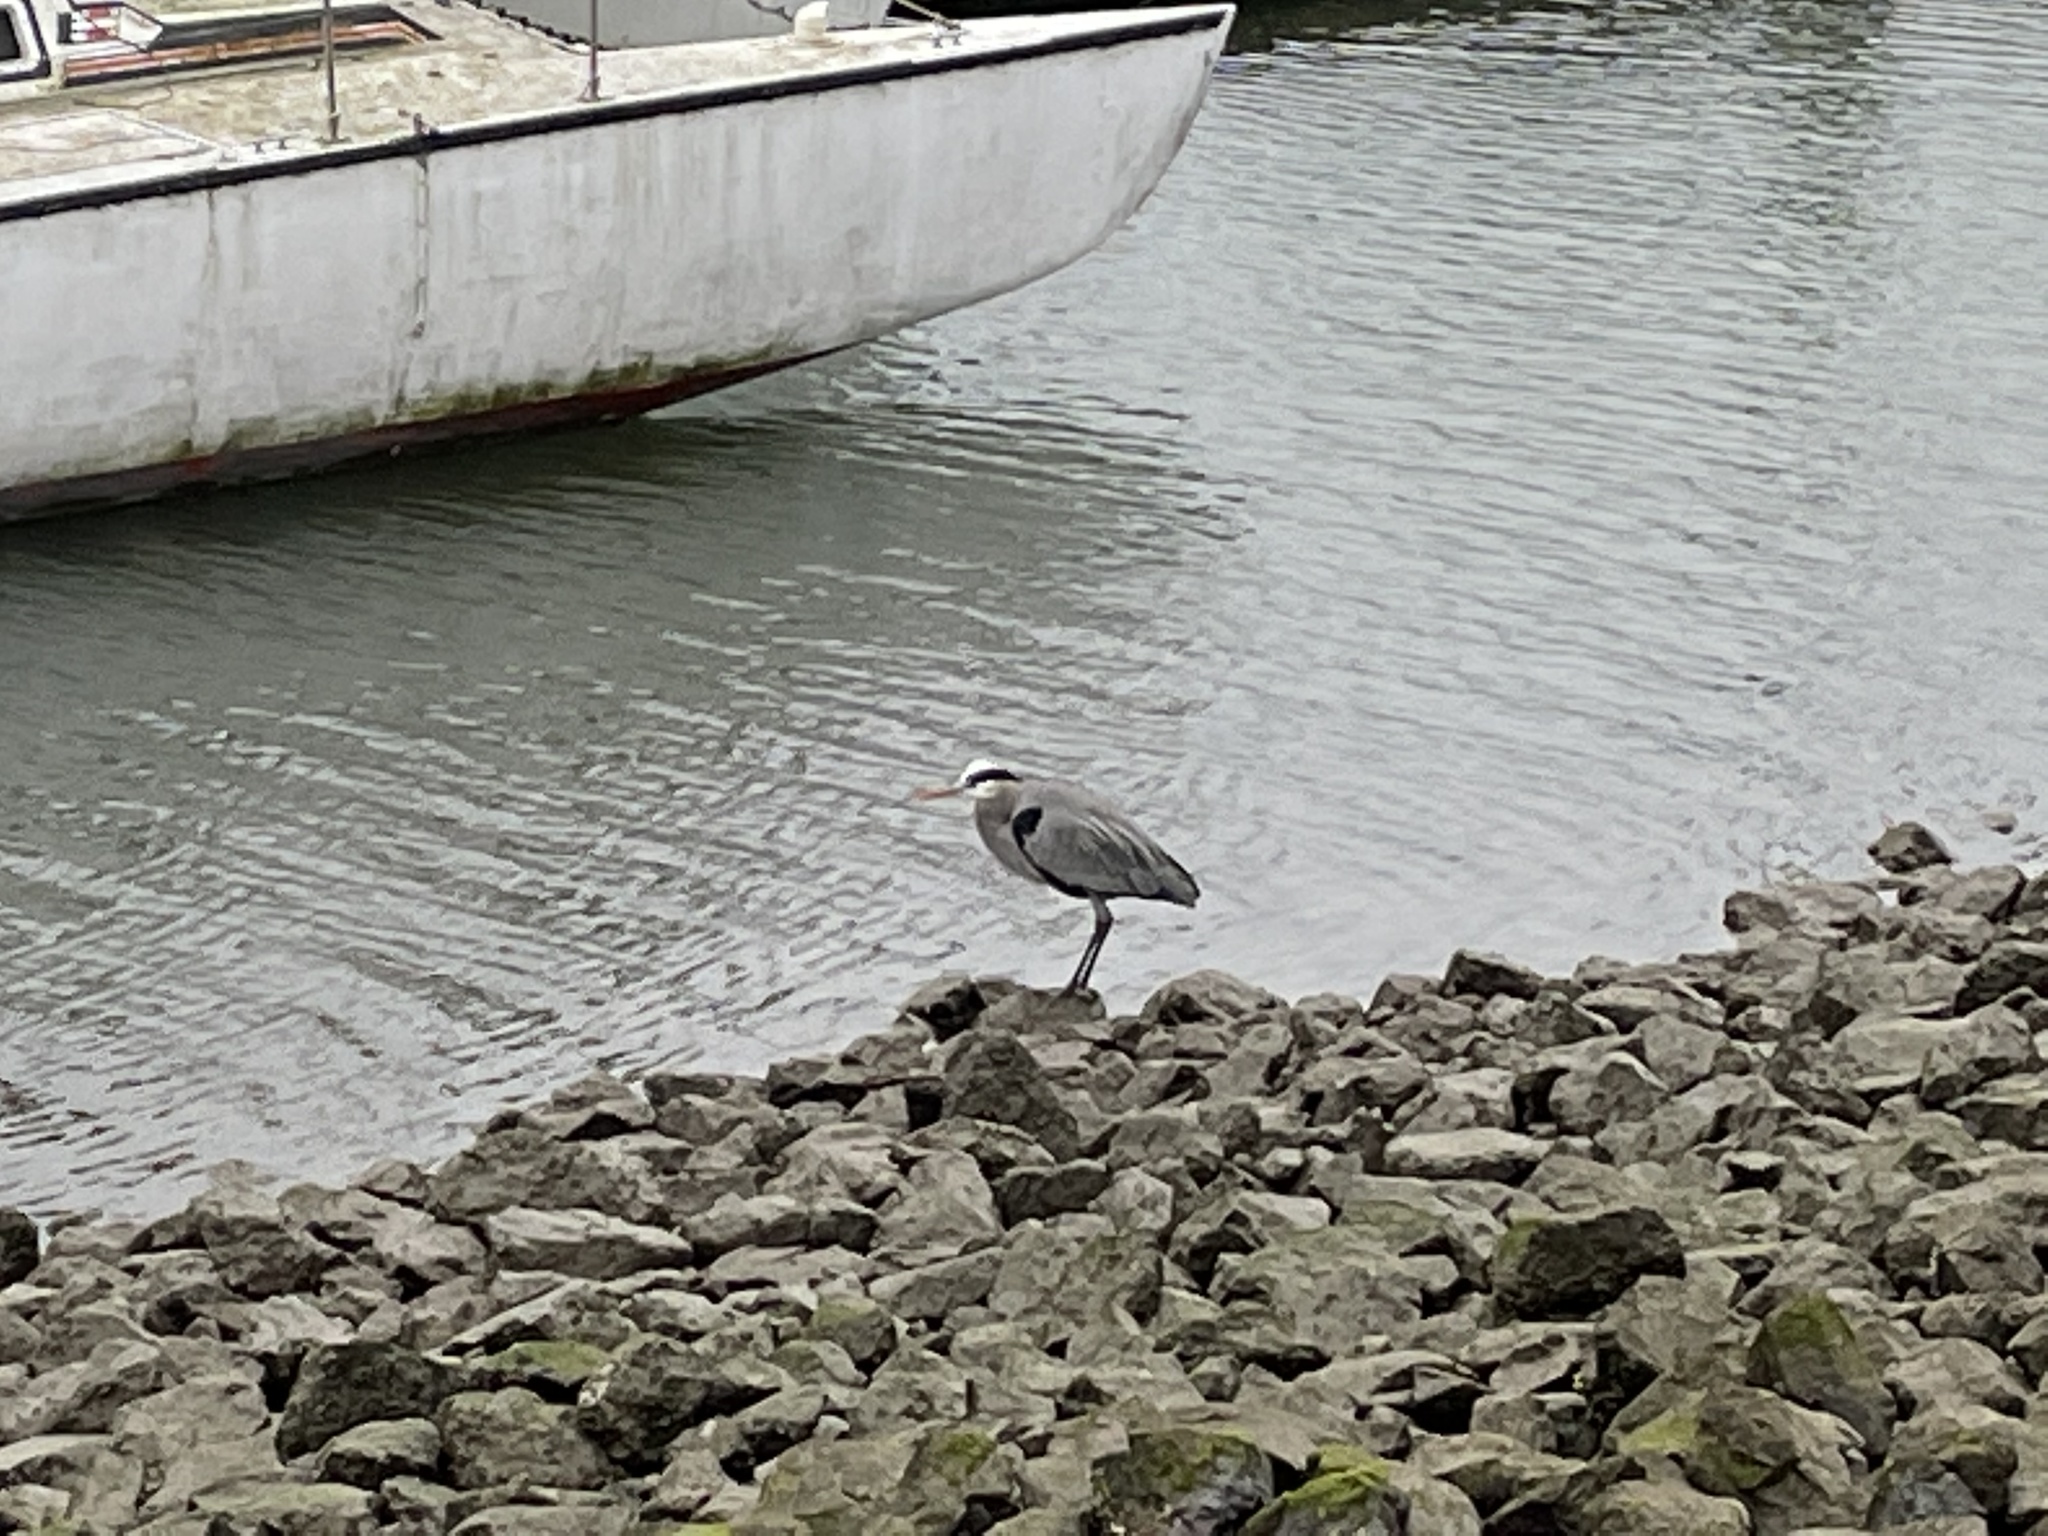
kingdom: Animalia
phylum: Chordata
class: Aves
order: Pelecaniformes
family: Ardeidae
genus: Ardea
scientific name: Ardea herodias
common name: Great blue heron
